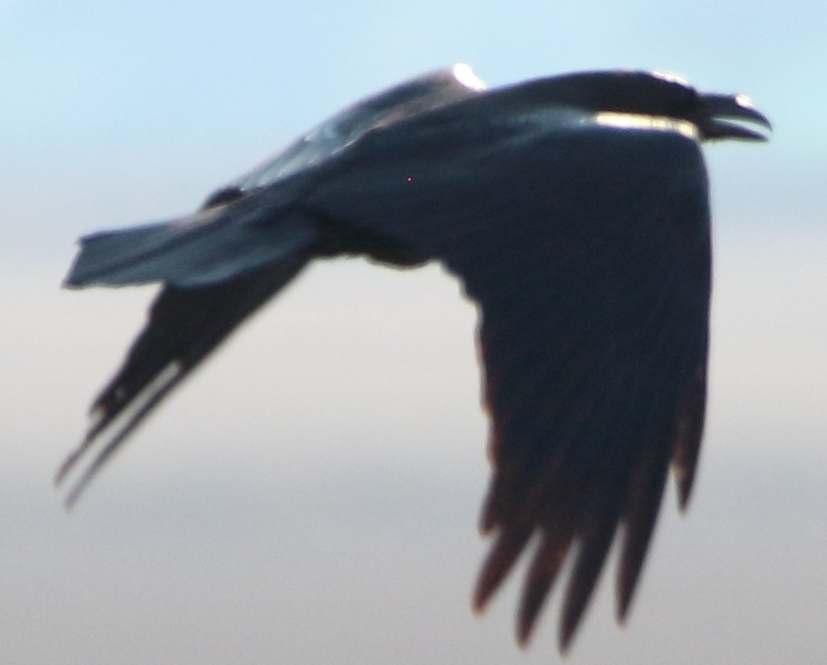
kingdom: Animalia
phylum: Chordata
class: Aves
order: Passeriformes
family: Corvidae
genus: Corvus
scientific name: Corvus corax
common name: Common raven
